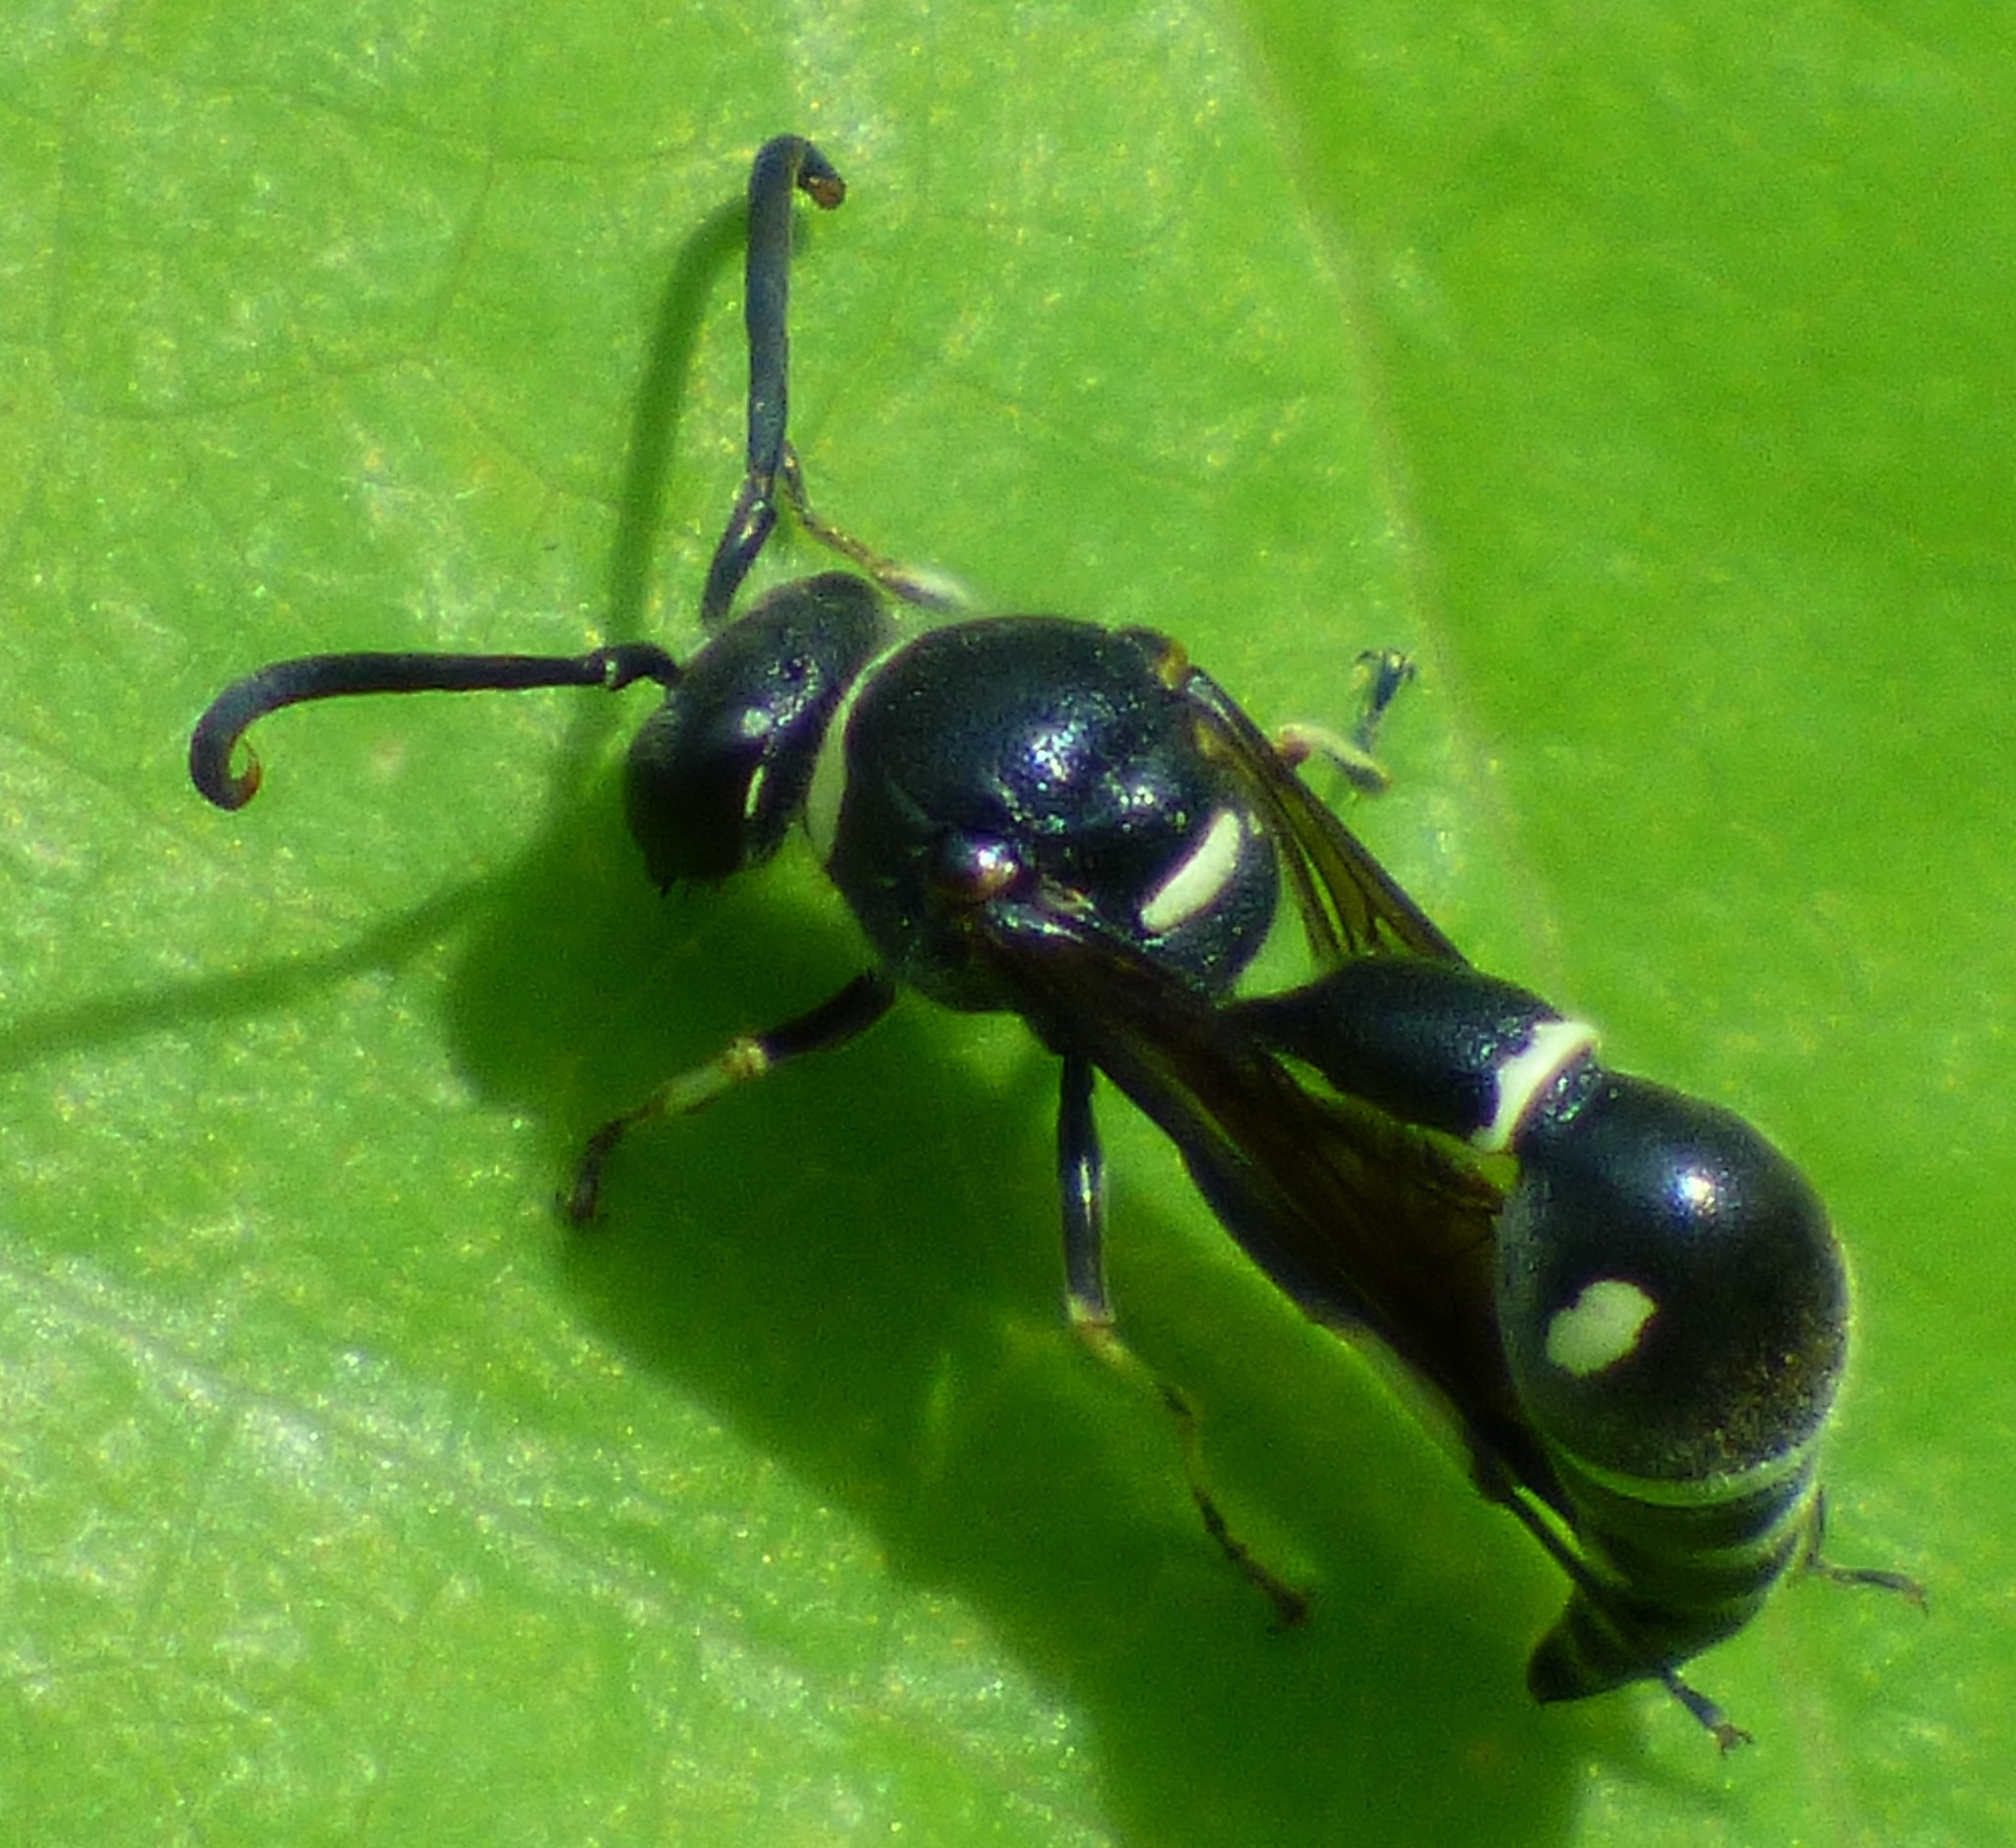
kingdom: Animalia
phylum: Arthropoda
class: Insecta
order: Hymenoptera
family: Vespidae
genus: Eumenes
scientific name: Eumenes fraternus
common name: Fraternal potter wasp
